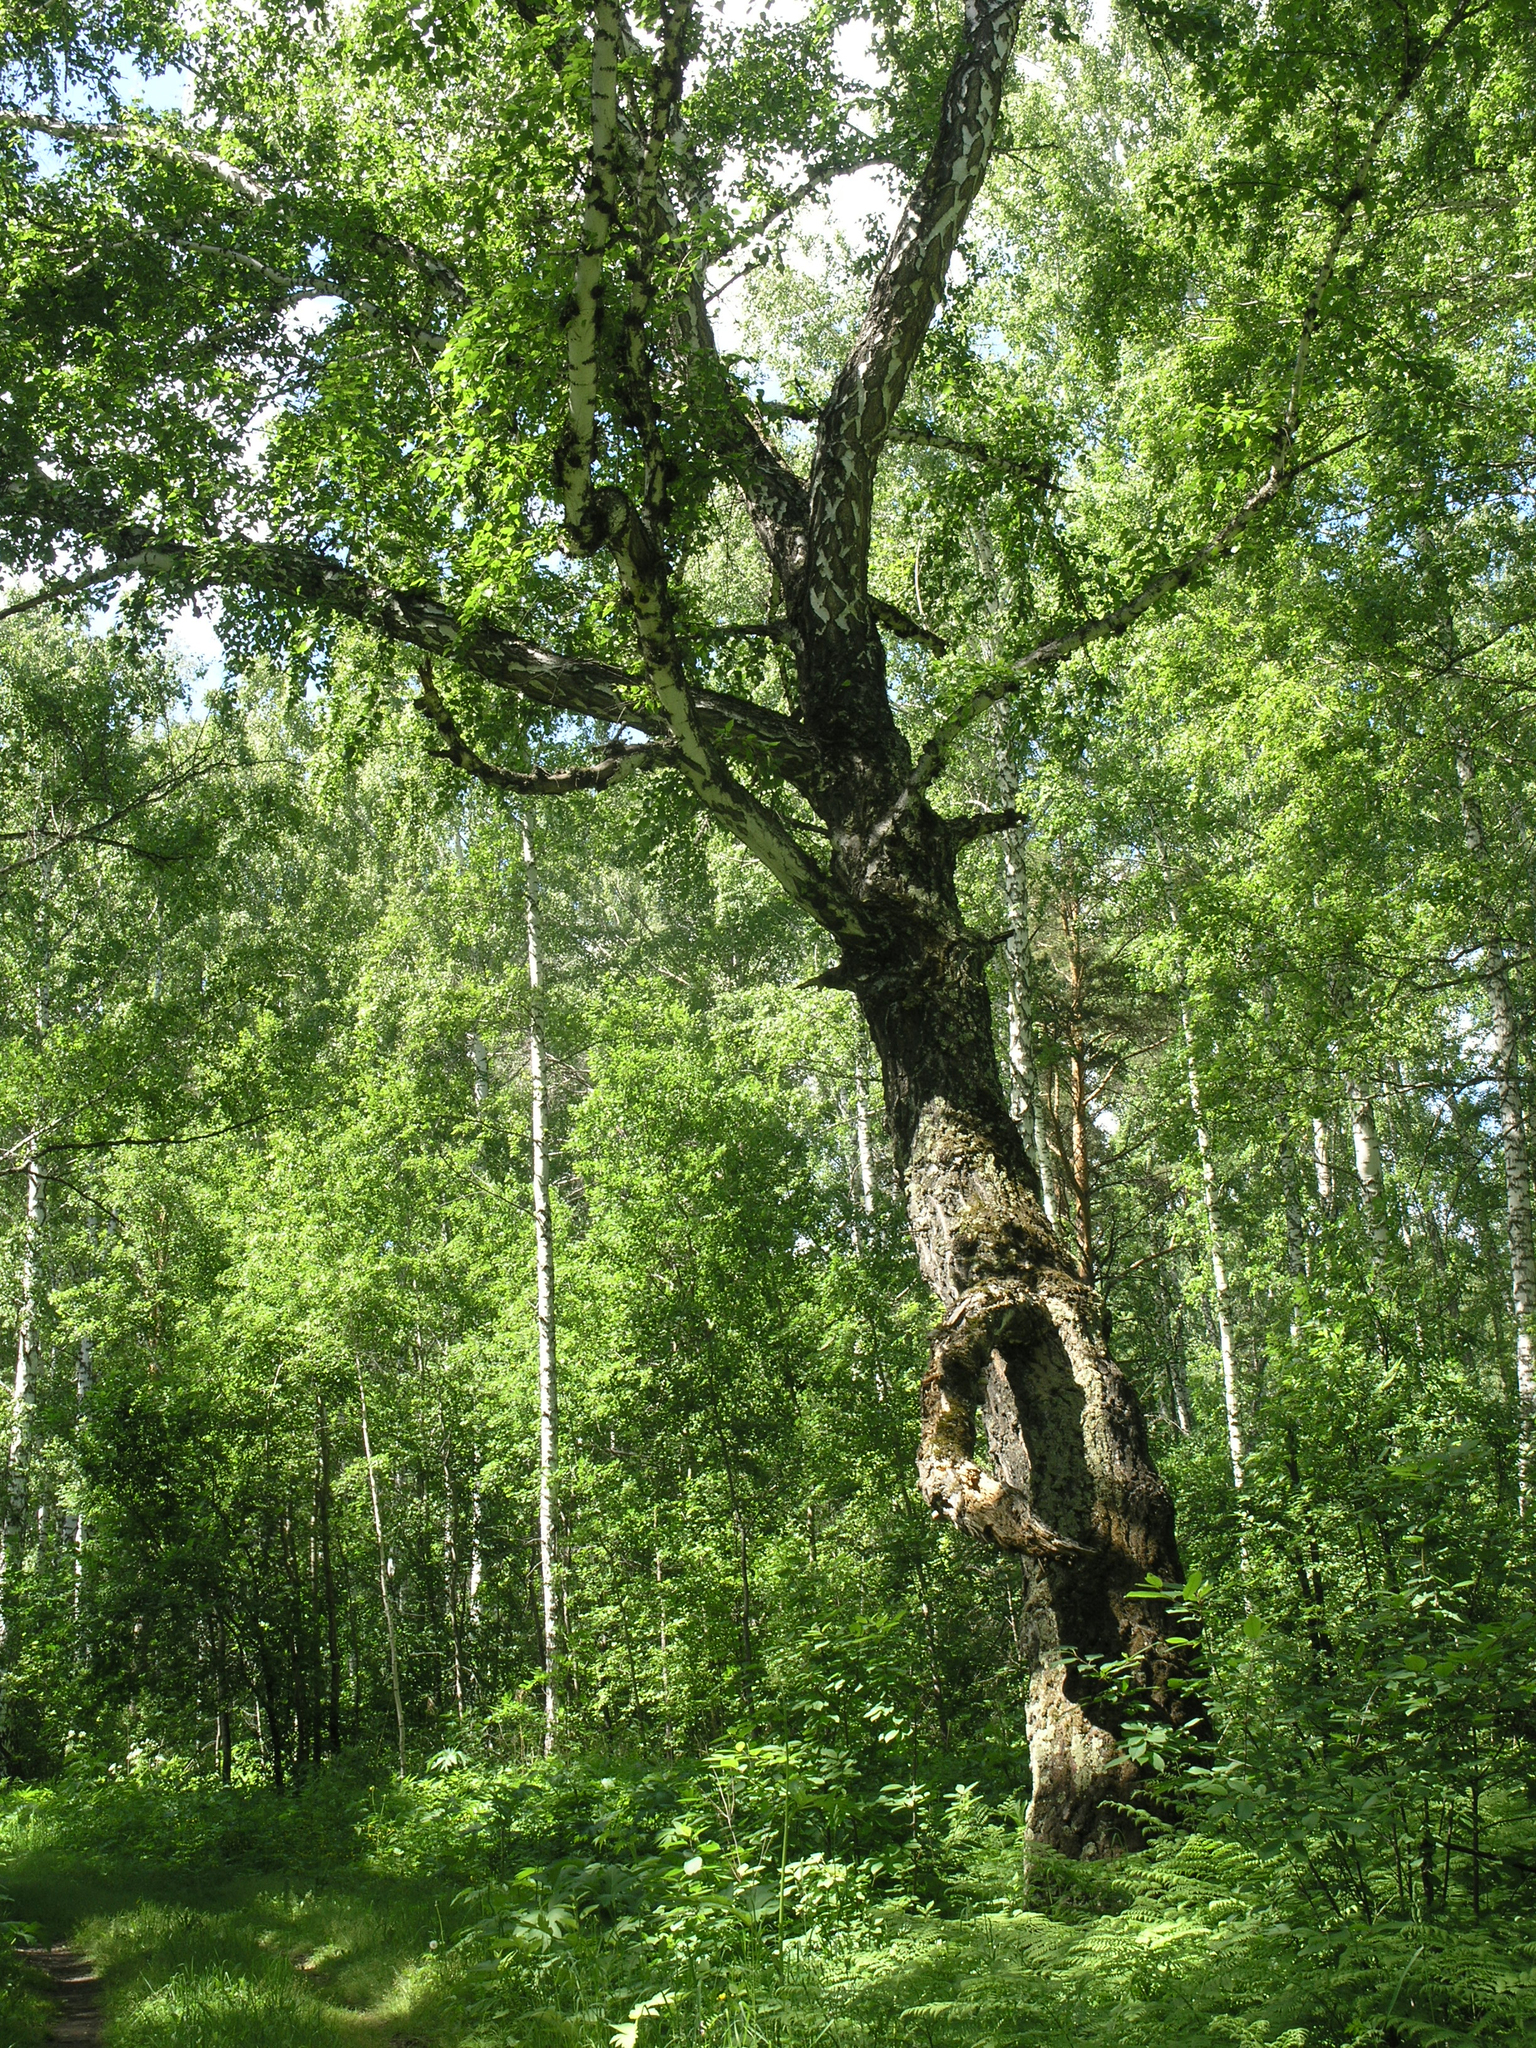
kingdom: Plantae
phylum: Tracheophyta
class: Magnoliopsida
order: Fagales
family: Betulaceae
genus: Betula
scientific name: Betula pendula
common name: Silver birch
